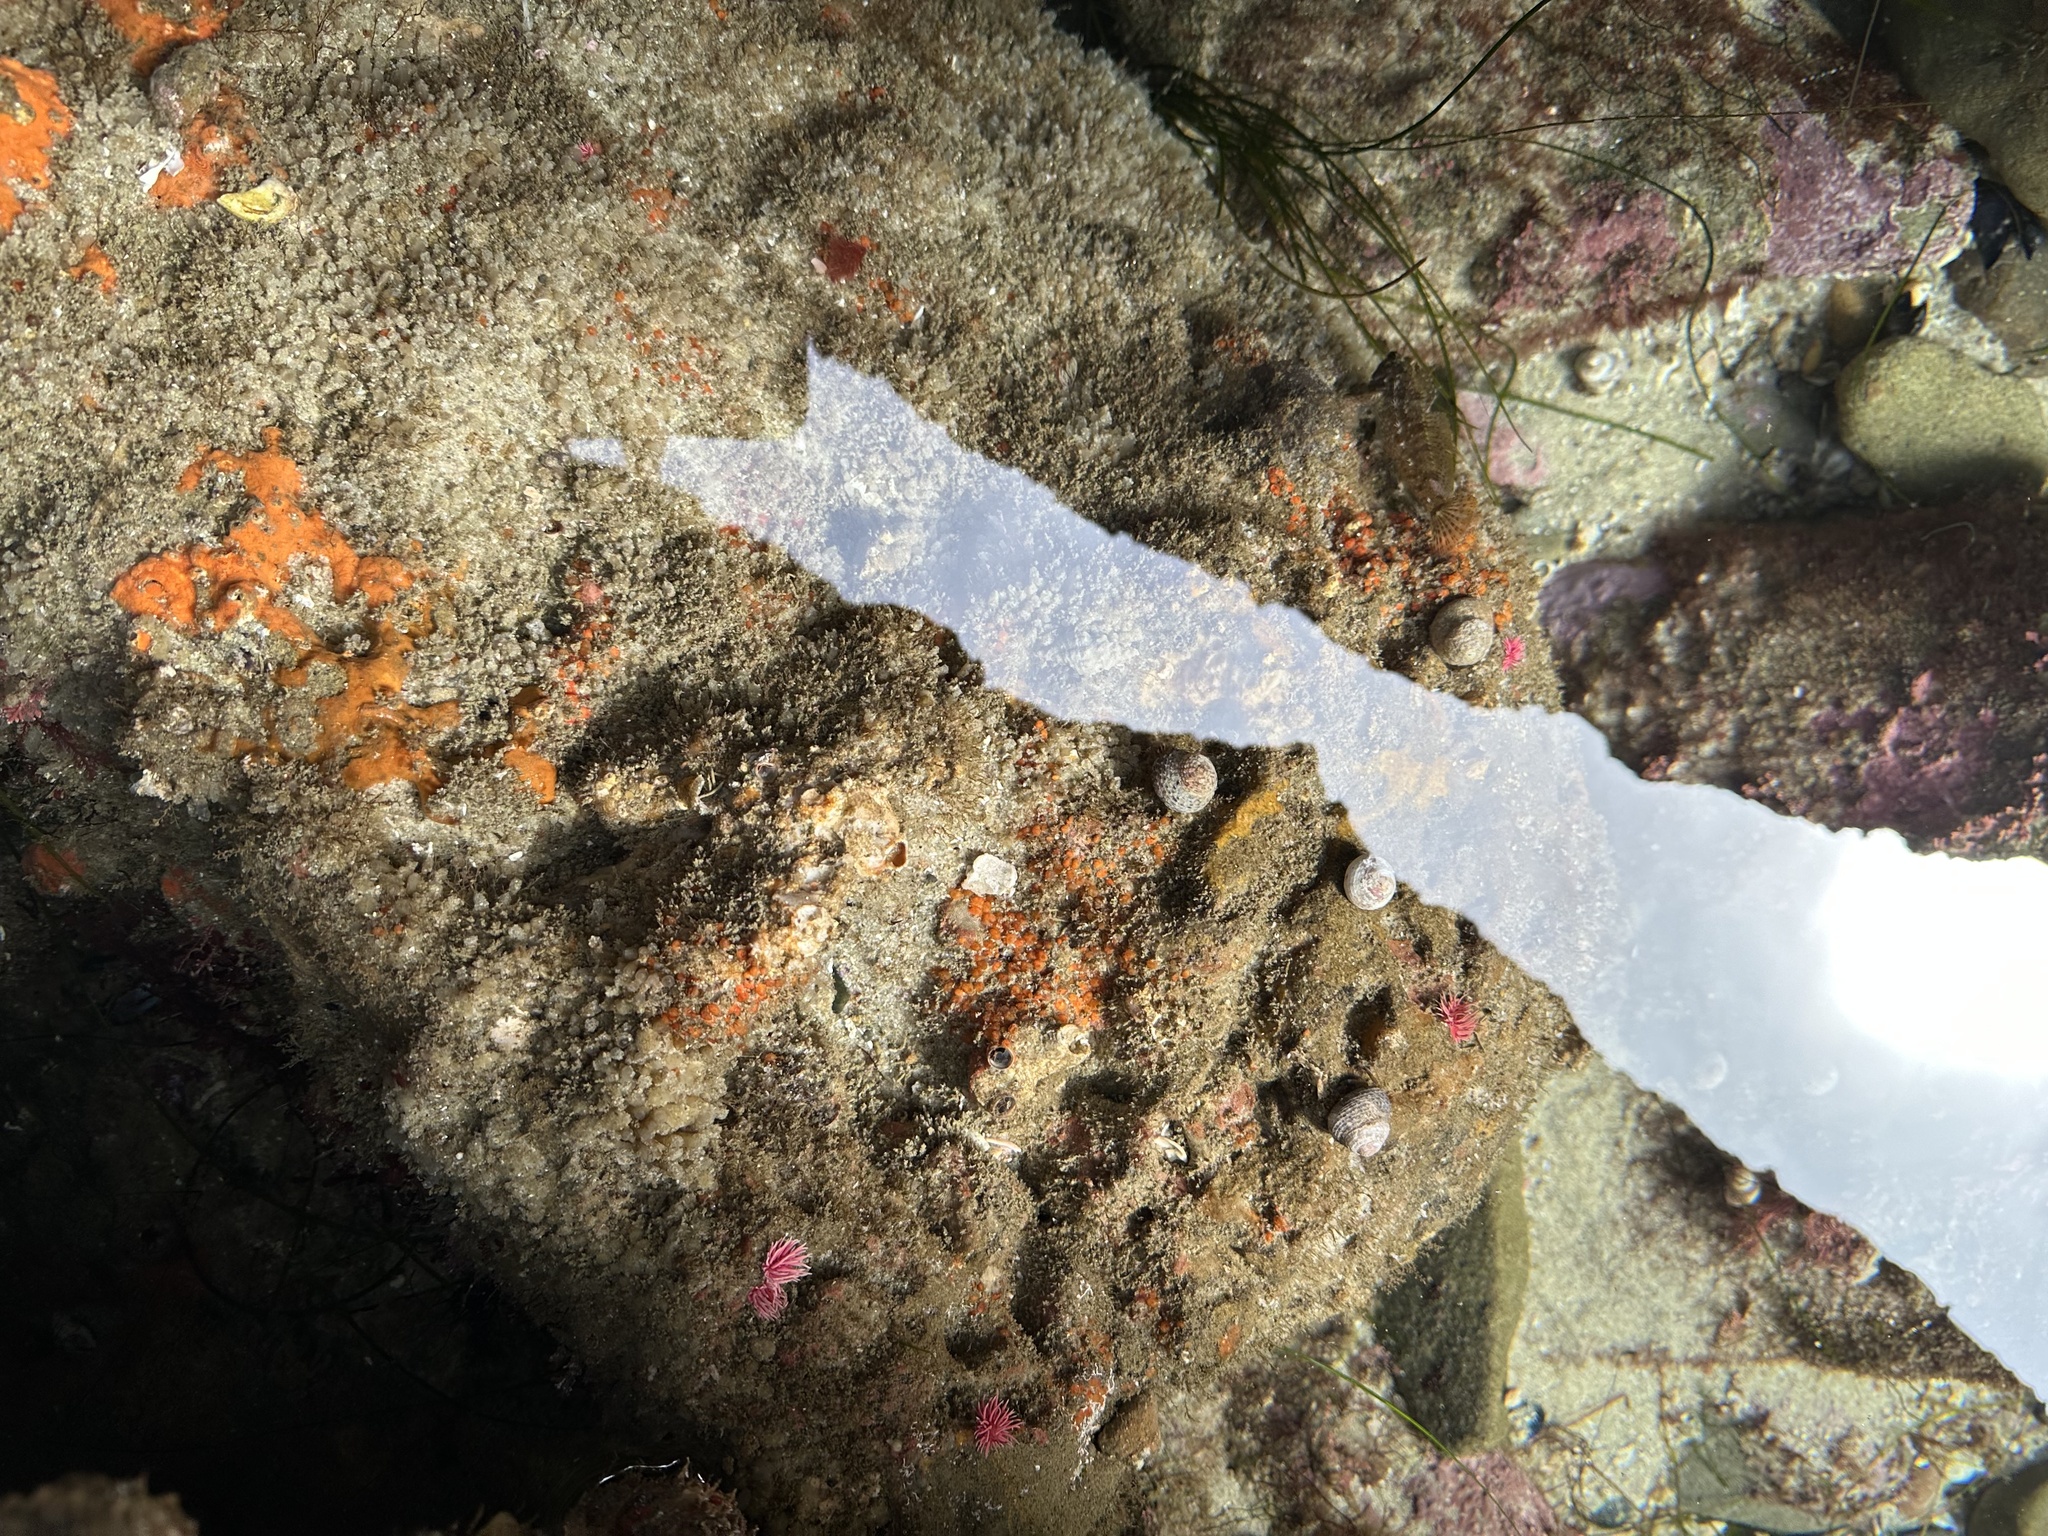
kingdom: Animalia
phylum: Mollusca
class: Gastropoda
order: Nudibranchia
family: Goniodorididae
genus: Okenia
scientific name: Okenia
